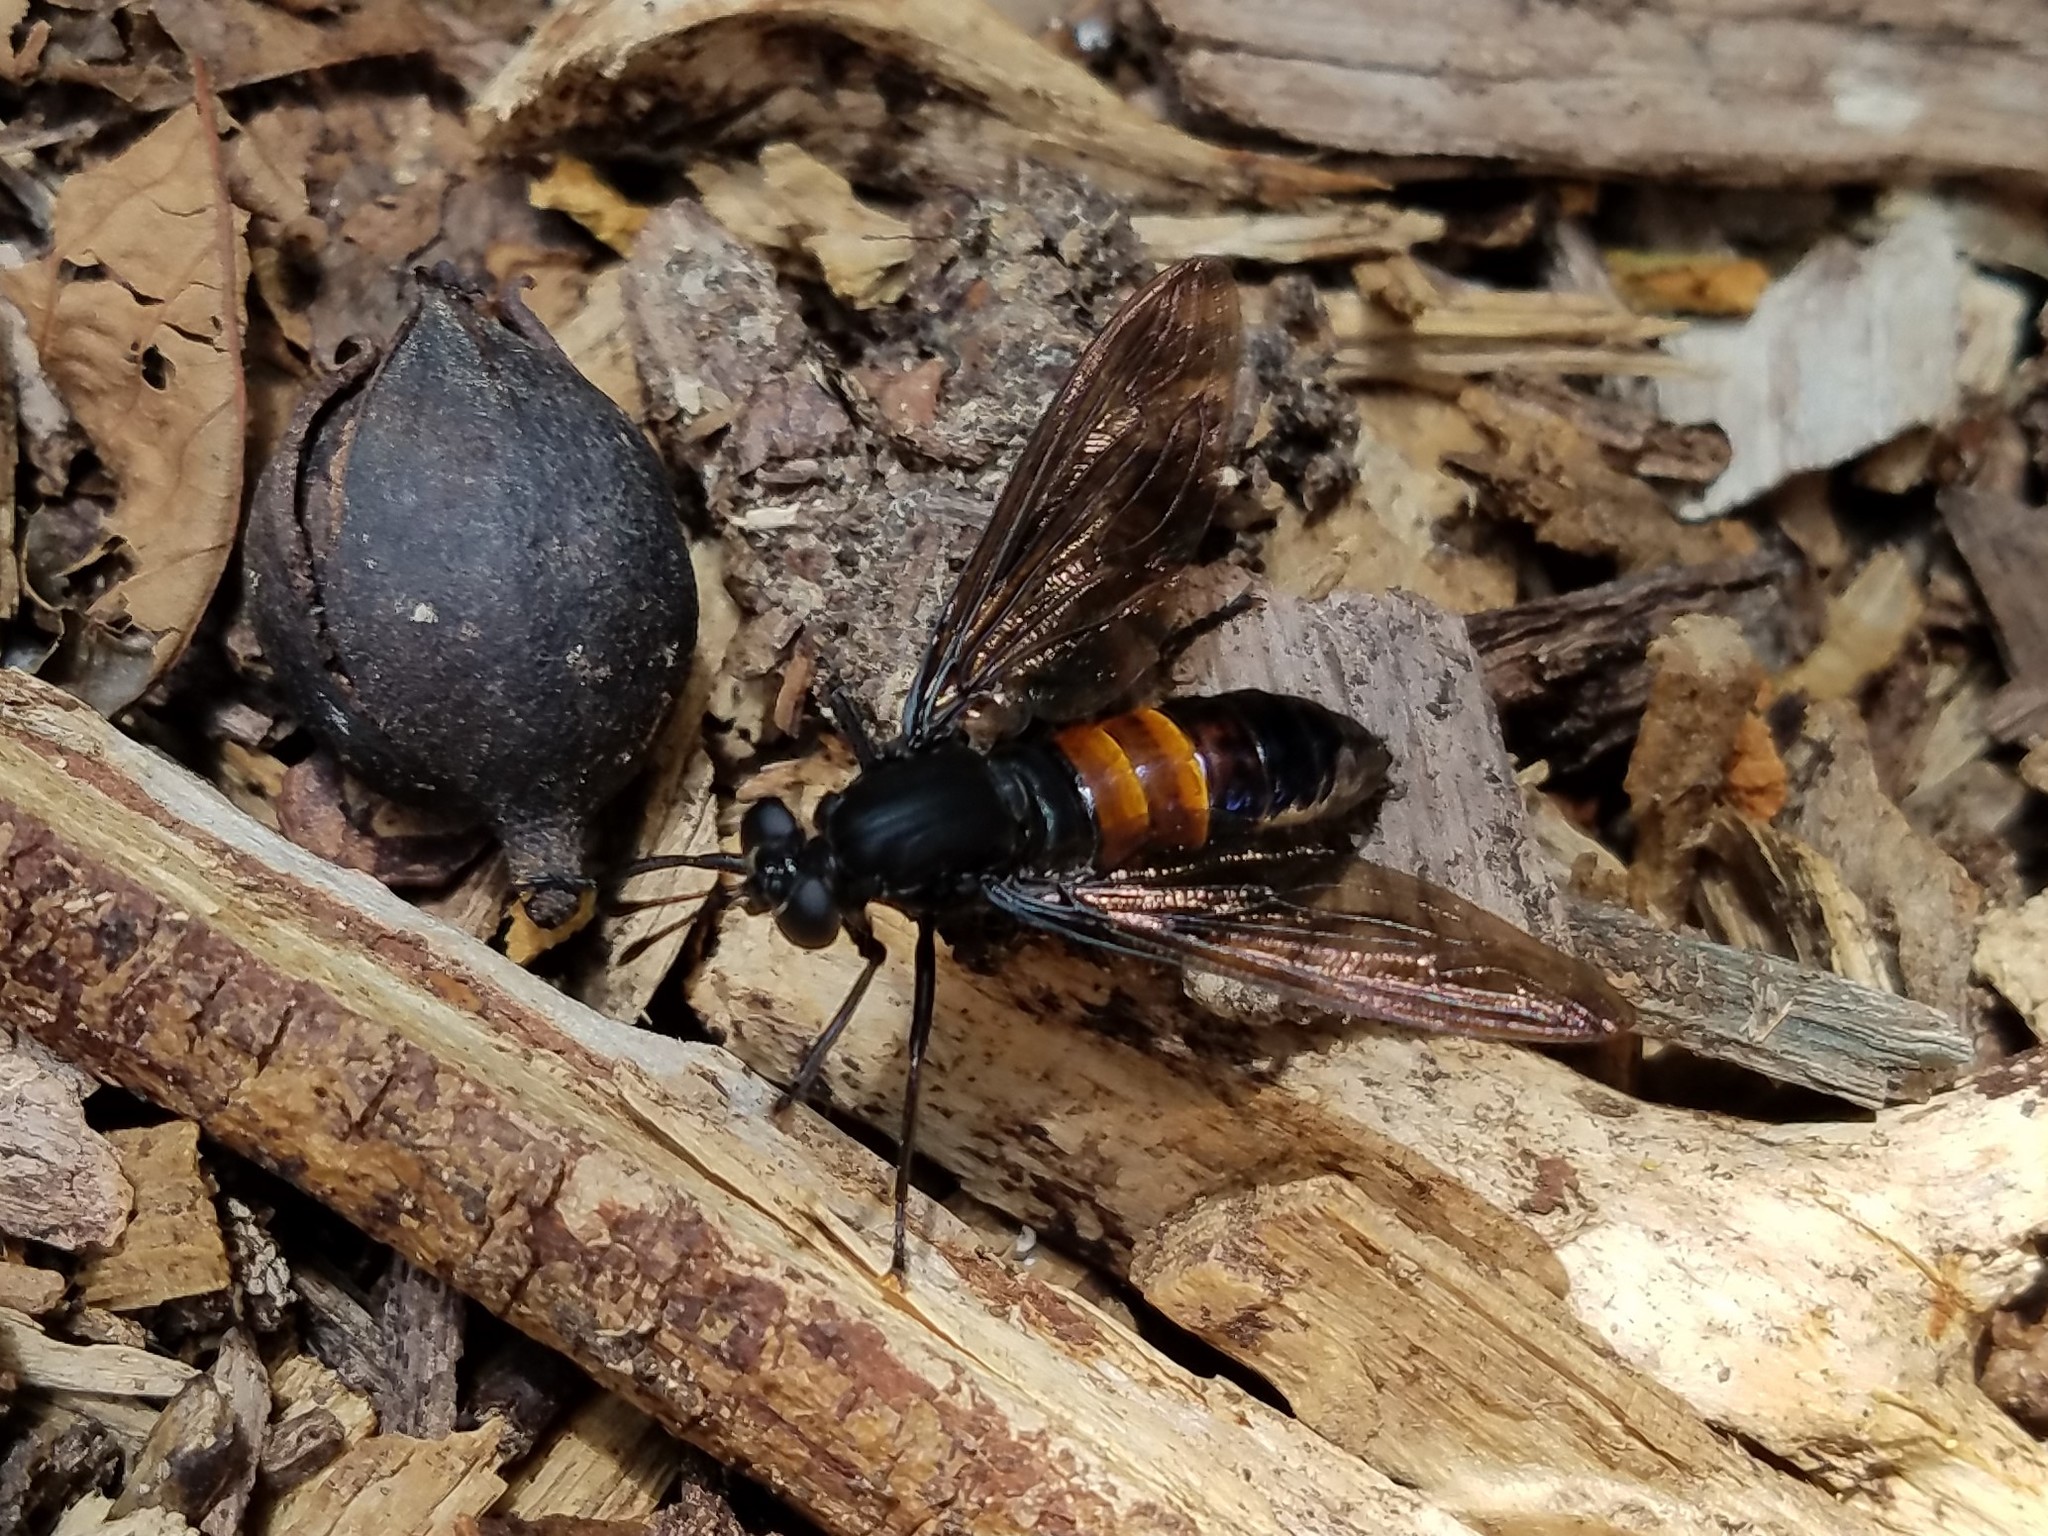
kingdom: Animalia
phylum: Arthropoda
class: Insecta
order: Diptera
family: Mydidae
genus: Mydas
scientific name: Mydas fulvifrons
